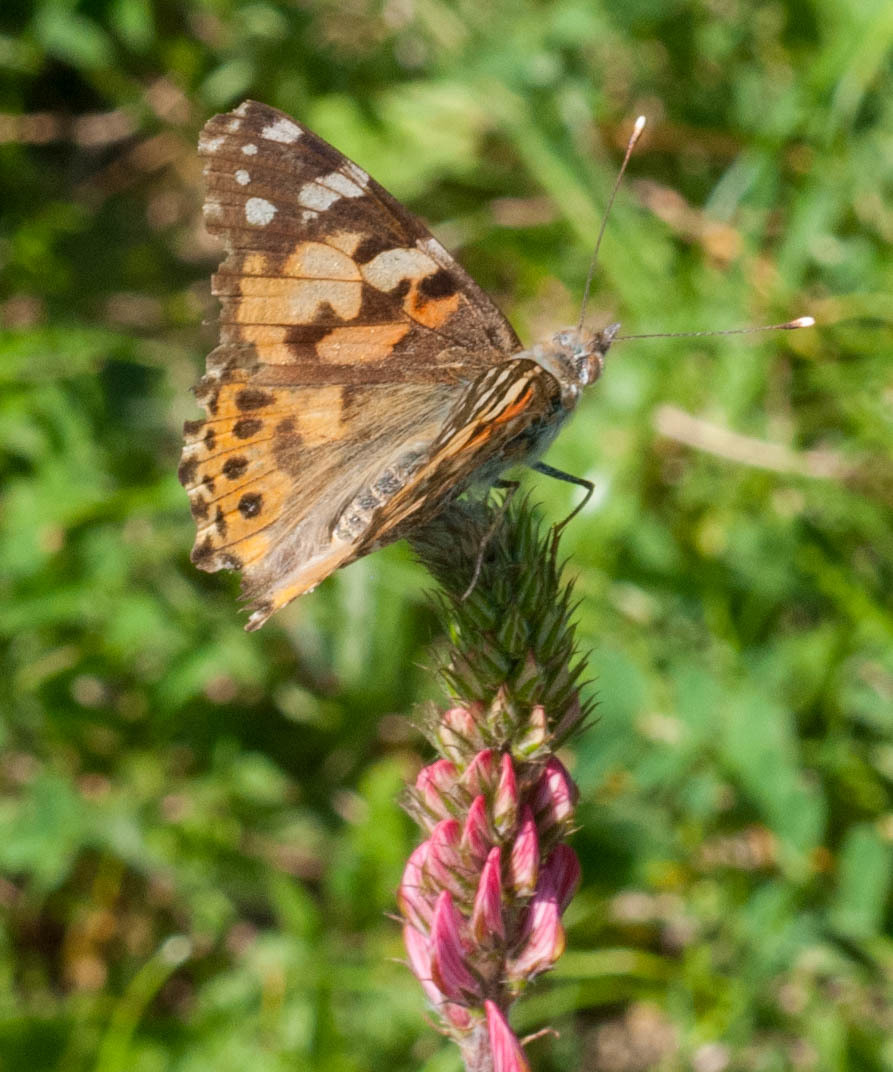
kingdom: Animalia
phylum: Arthropoda
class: Insecta
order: Lepidoptera
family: Nymphalidae
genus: Vanessa
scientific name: Vanessa cardui
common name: Painted lady
